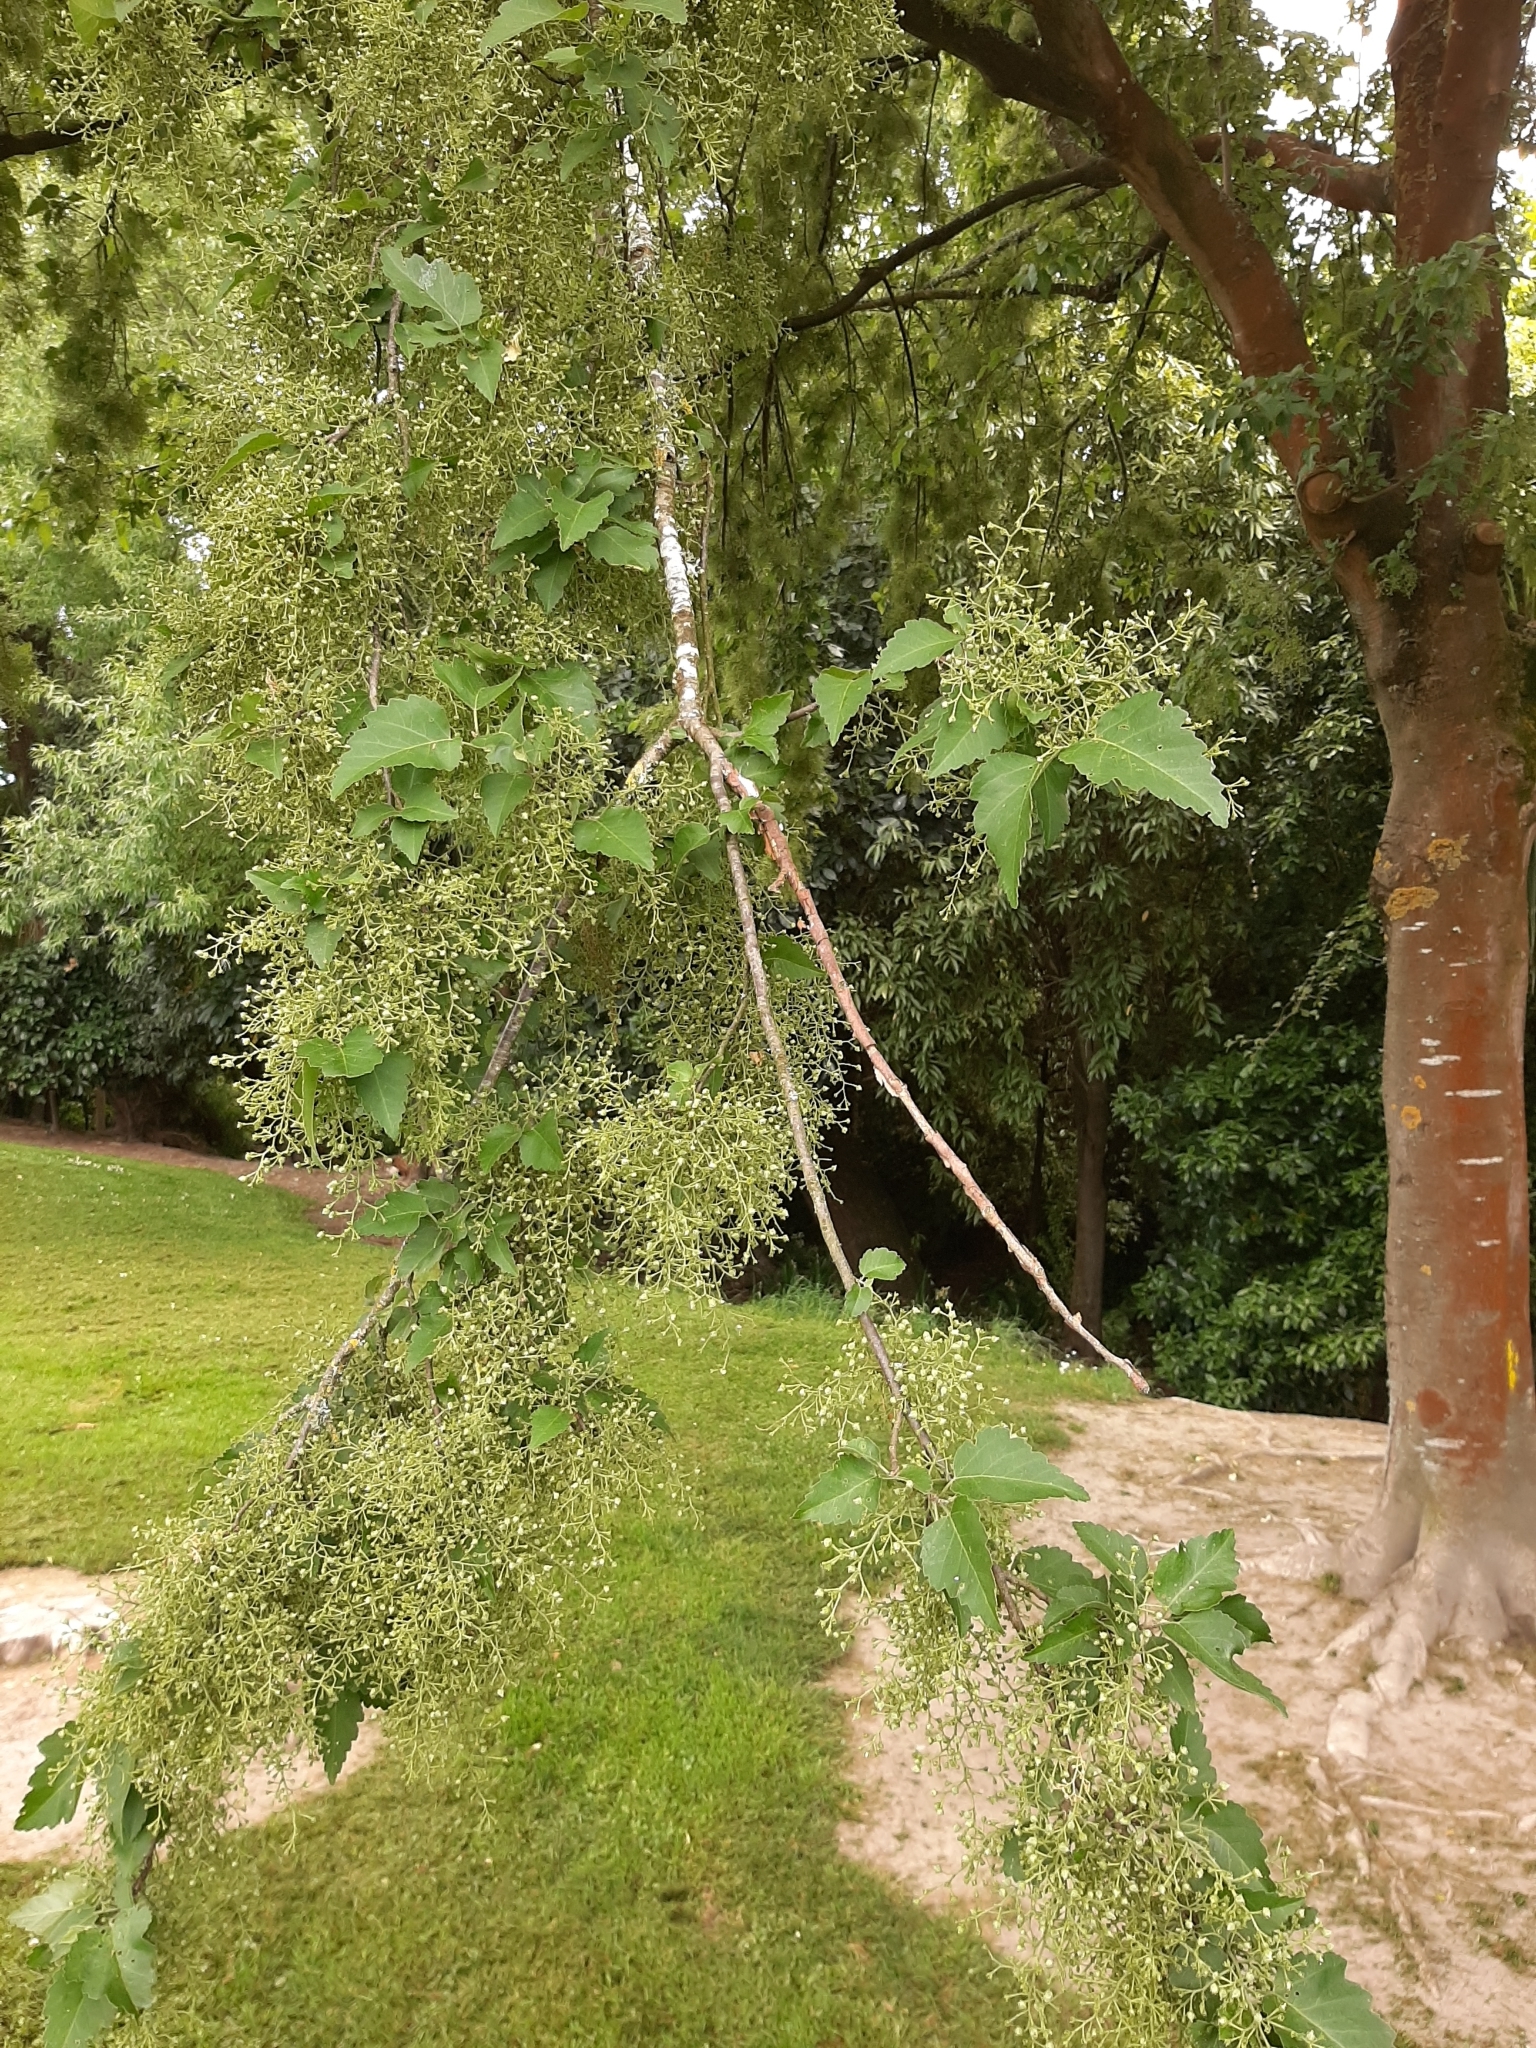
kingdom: Plantae
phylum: Tracheophyta
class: Magnoliopsida
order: Malvales
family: Malvaceae
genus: Plagianthus
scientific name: Plagianthus regius
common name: Manatu
